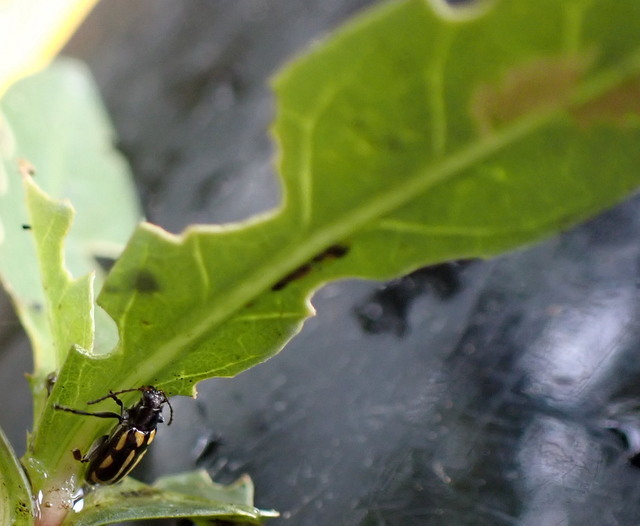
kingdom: Animalia
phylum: Arthropoda
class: Insecta
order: Coleoptera
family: Chrysomelidae
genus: Agasicles
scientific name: Agasicles hygrophila
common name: Alligatorweed flea beetle
